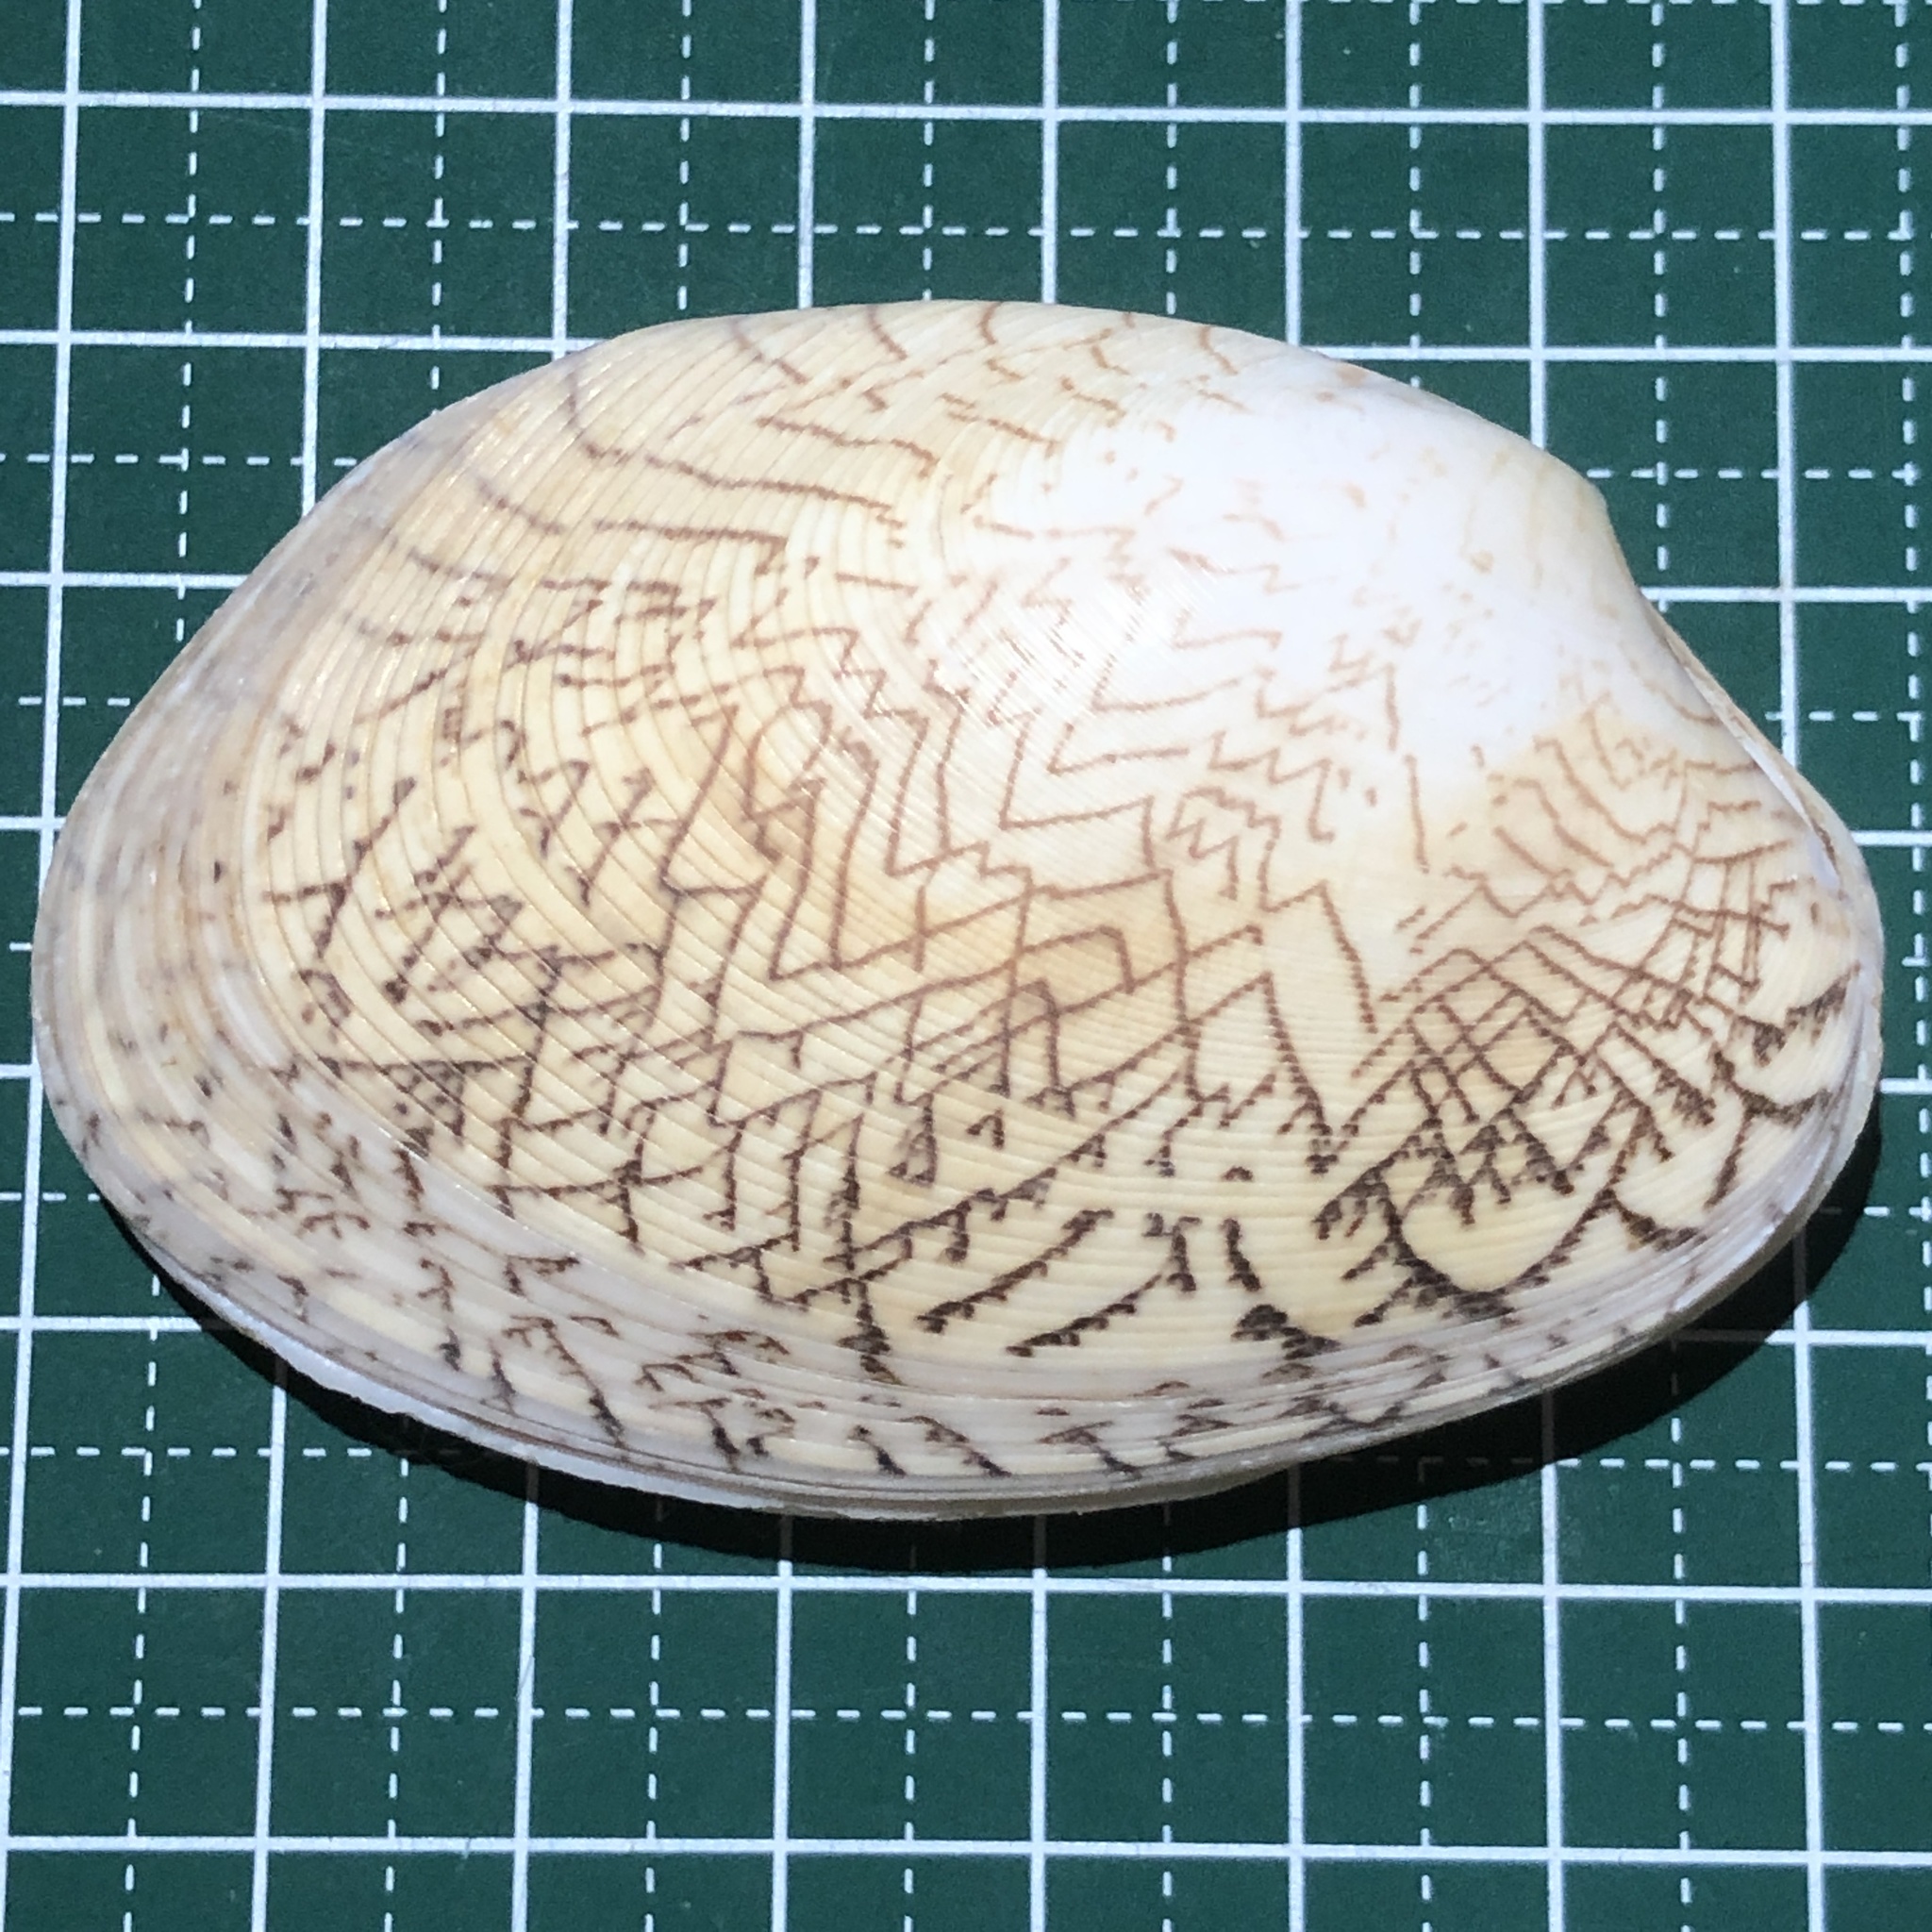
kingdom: Animalia
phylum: Mollusca
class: Bivalvia
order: Venerida
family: Veneridae
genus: Tapes
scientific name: Tapes literatus
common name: Lettered carpet shell
